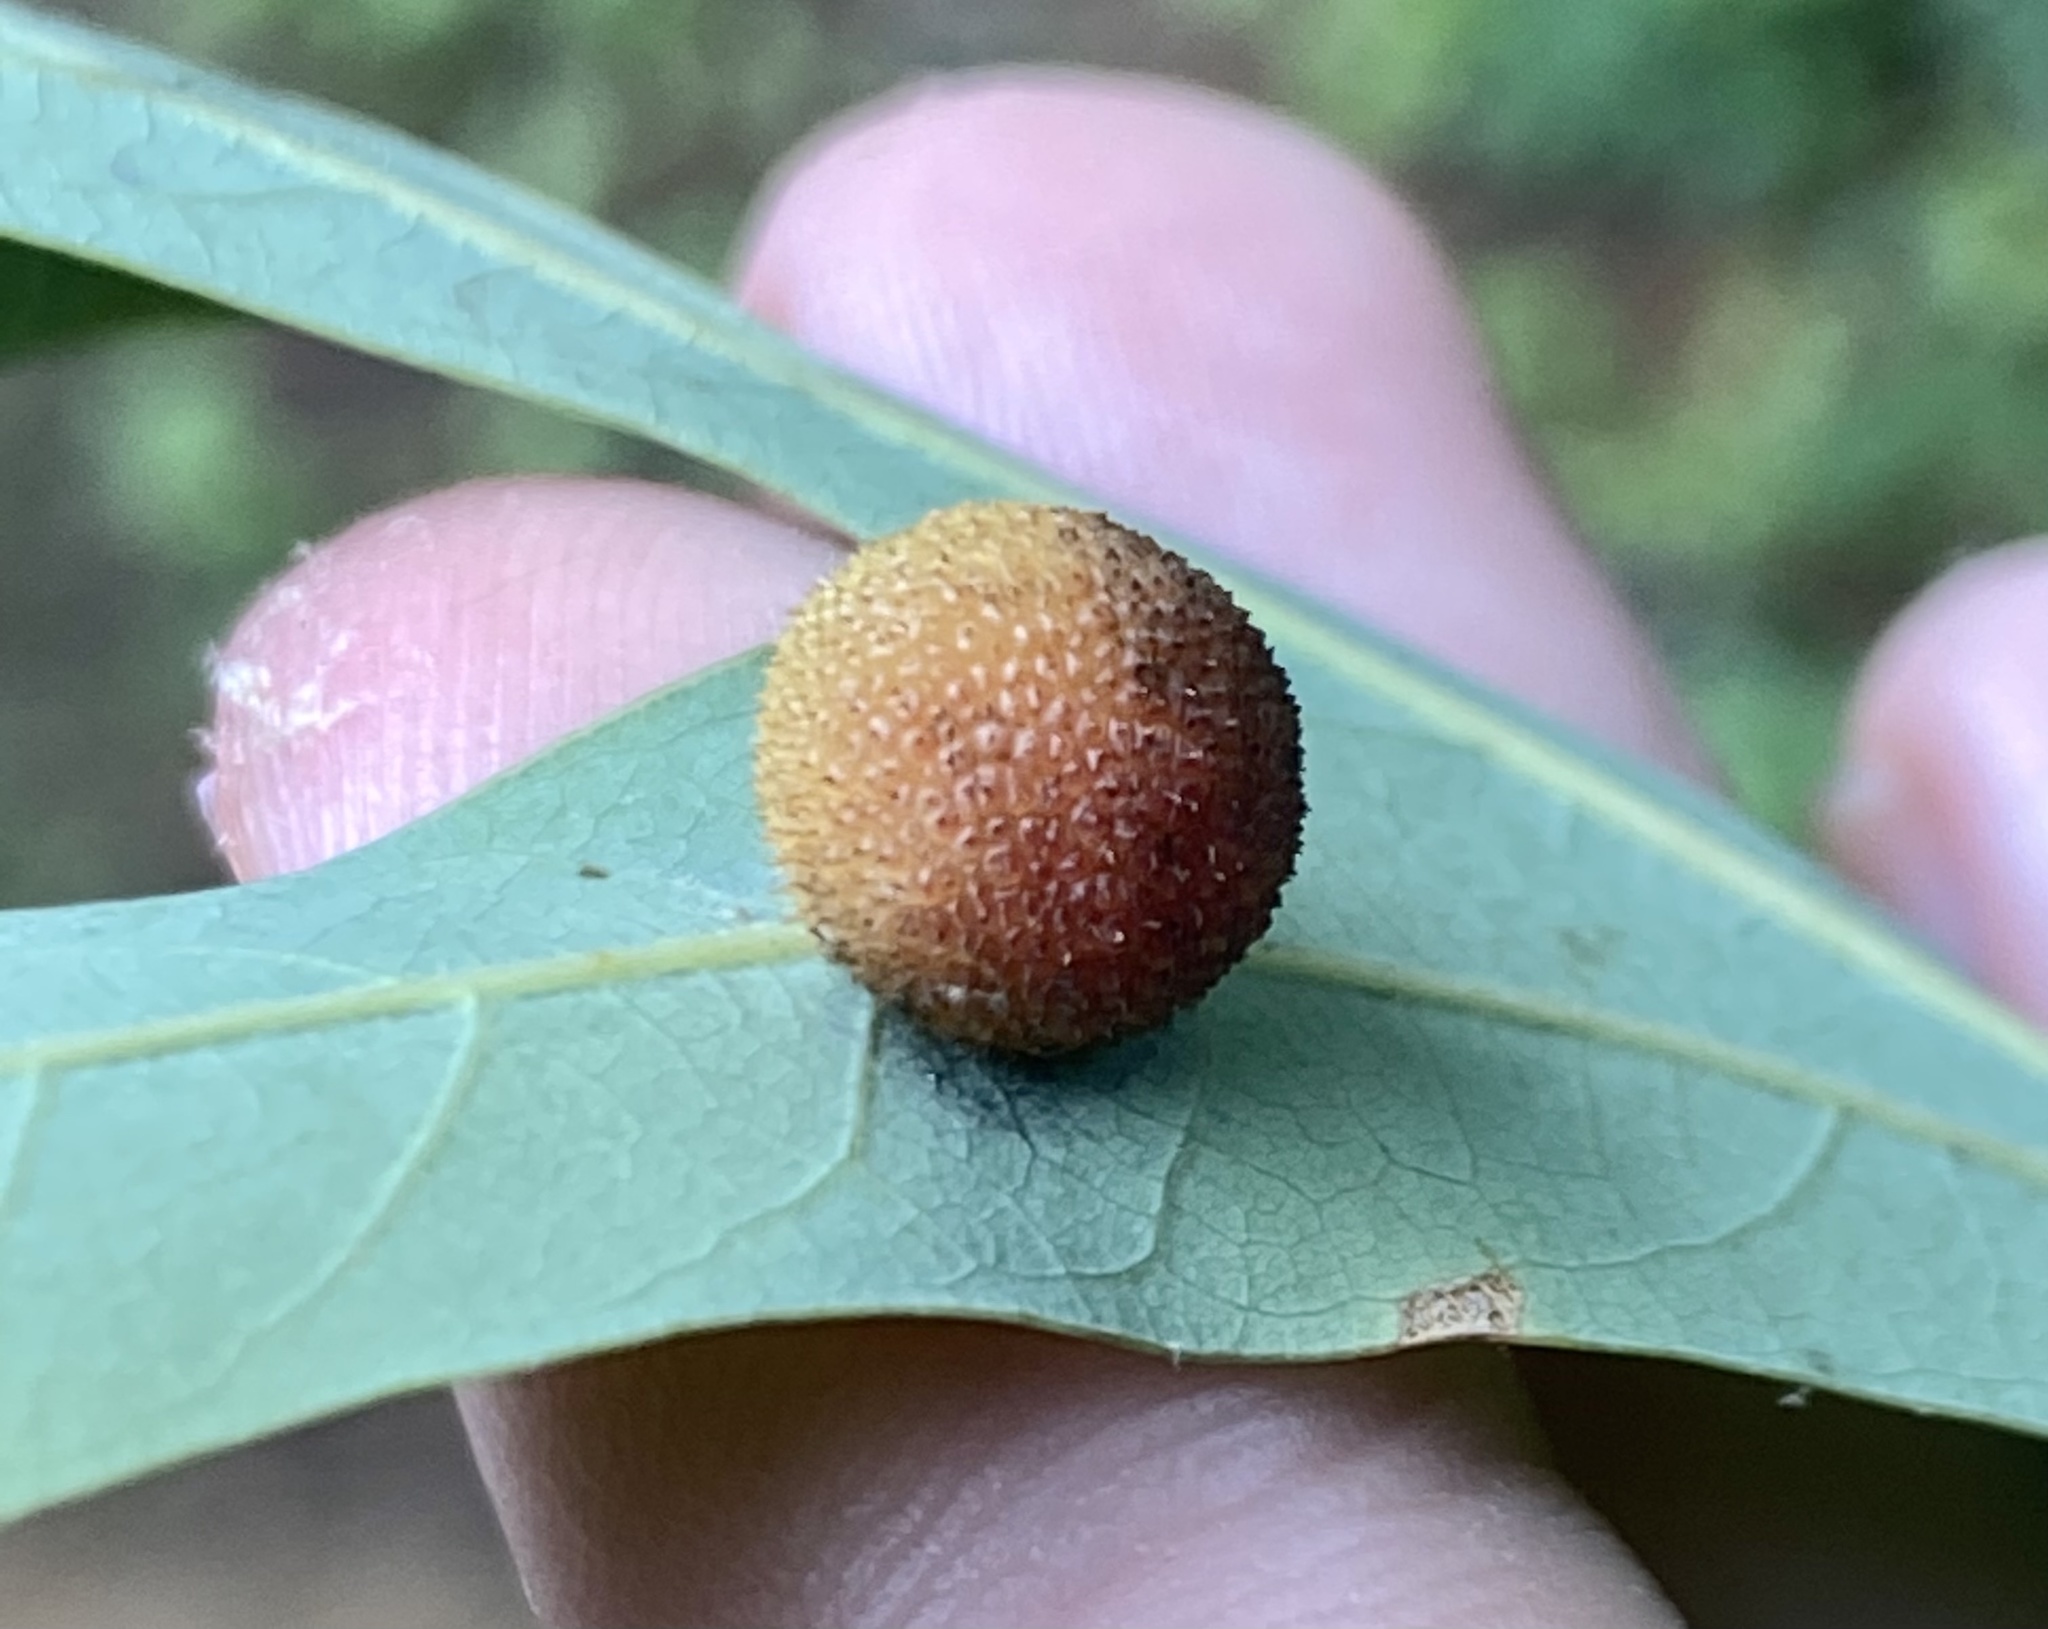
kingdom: Animalia
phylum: Arthropoda
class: Insecta
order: Hymenoptera
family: Cynipidae
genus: Acraspis
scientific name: Acraspis
